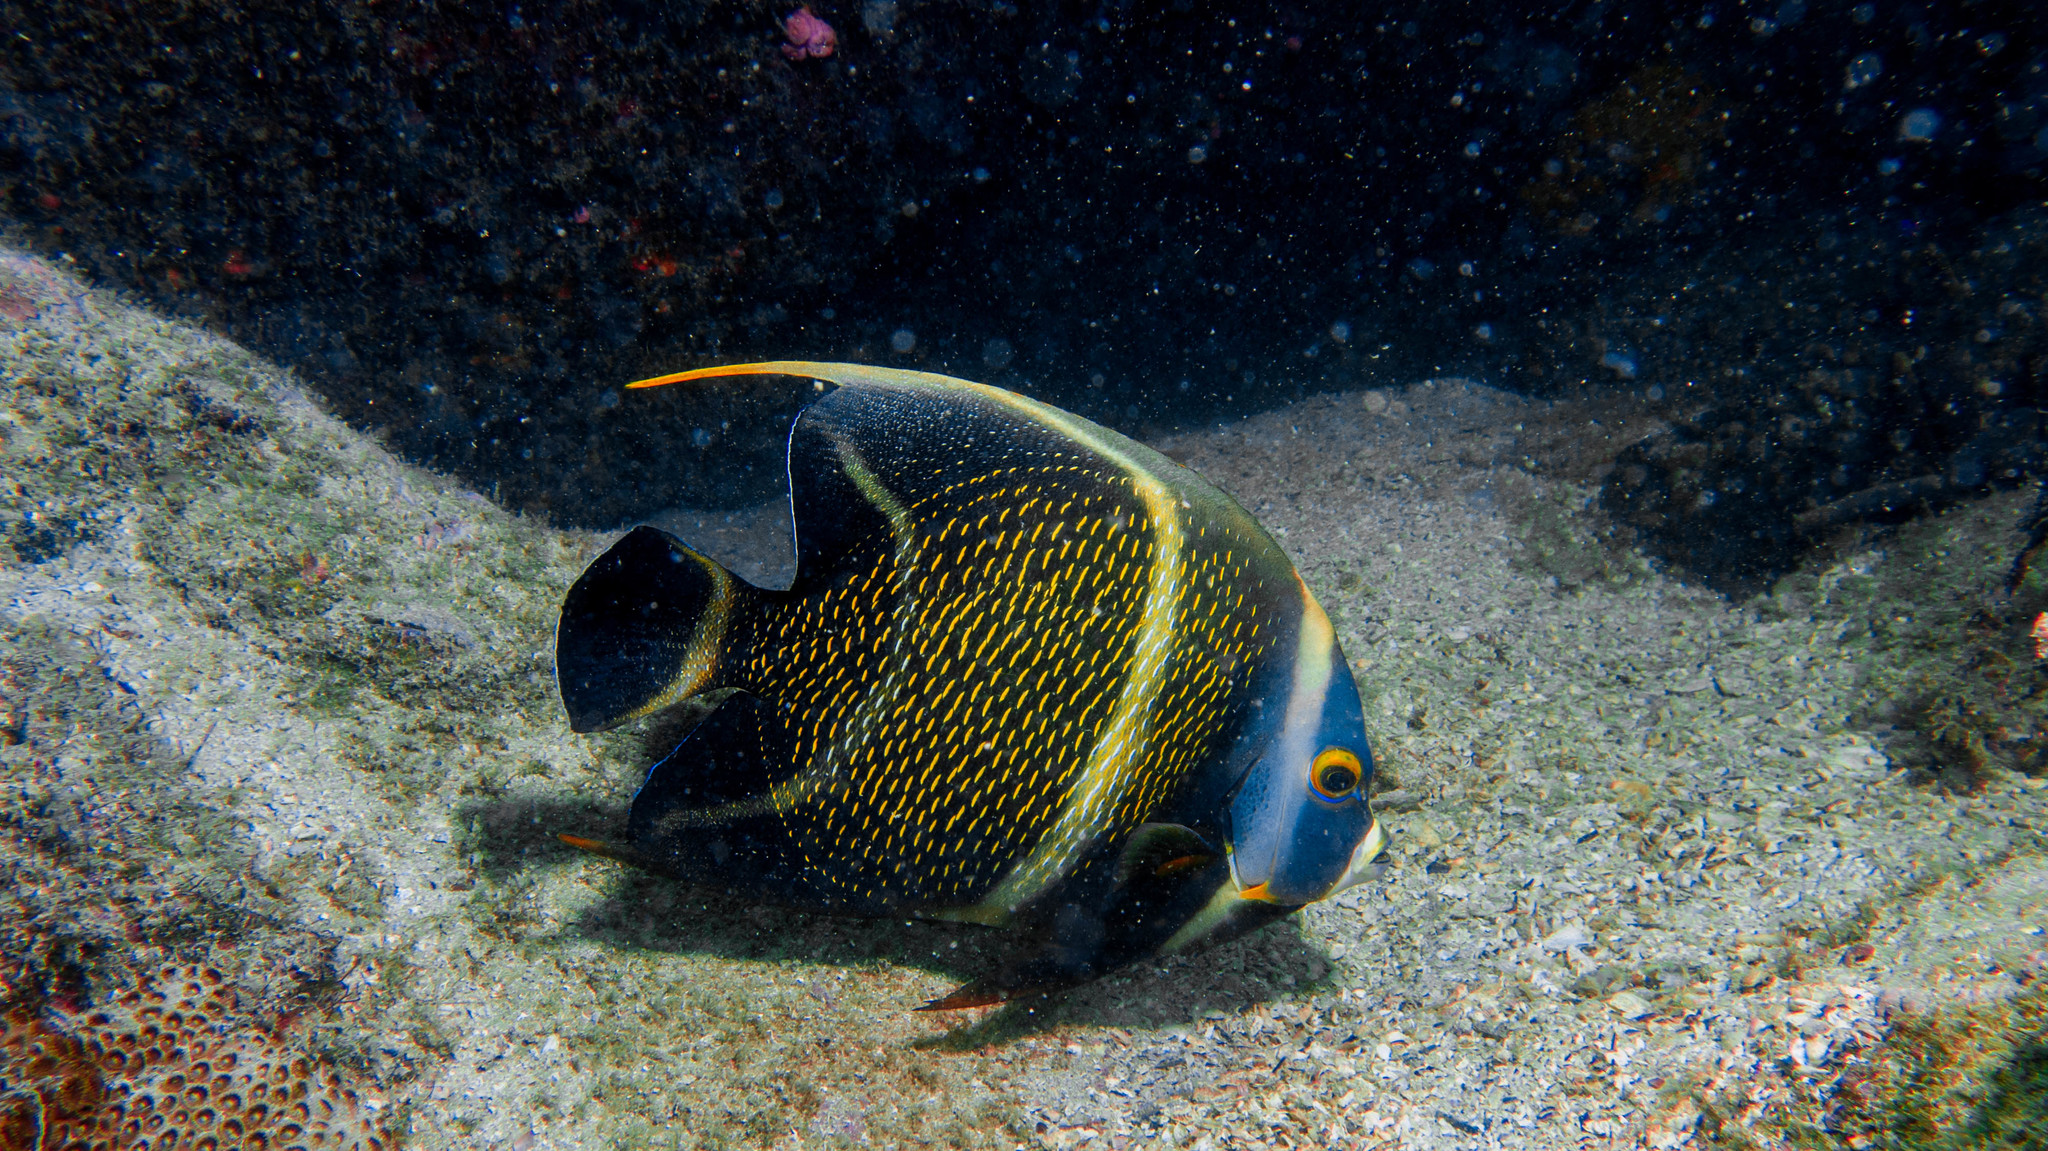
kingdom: Animalia
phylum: Chordata
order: Perciformes
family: Pomacanthidae
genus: Pomacanthus
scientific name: Pomacanthus paru
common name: French angelfish
